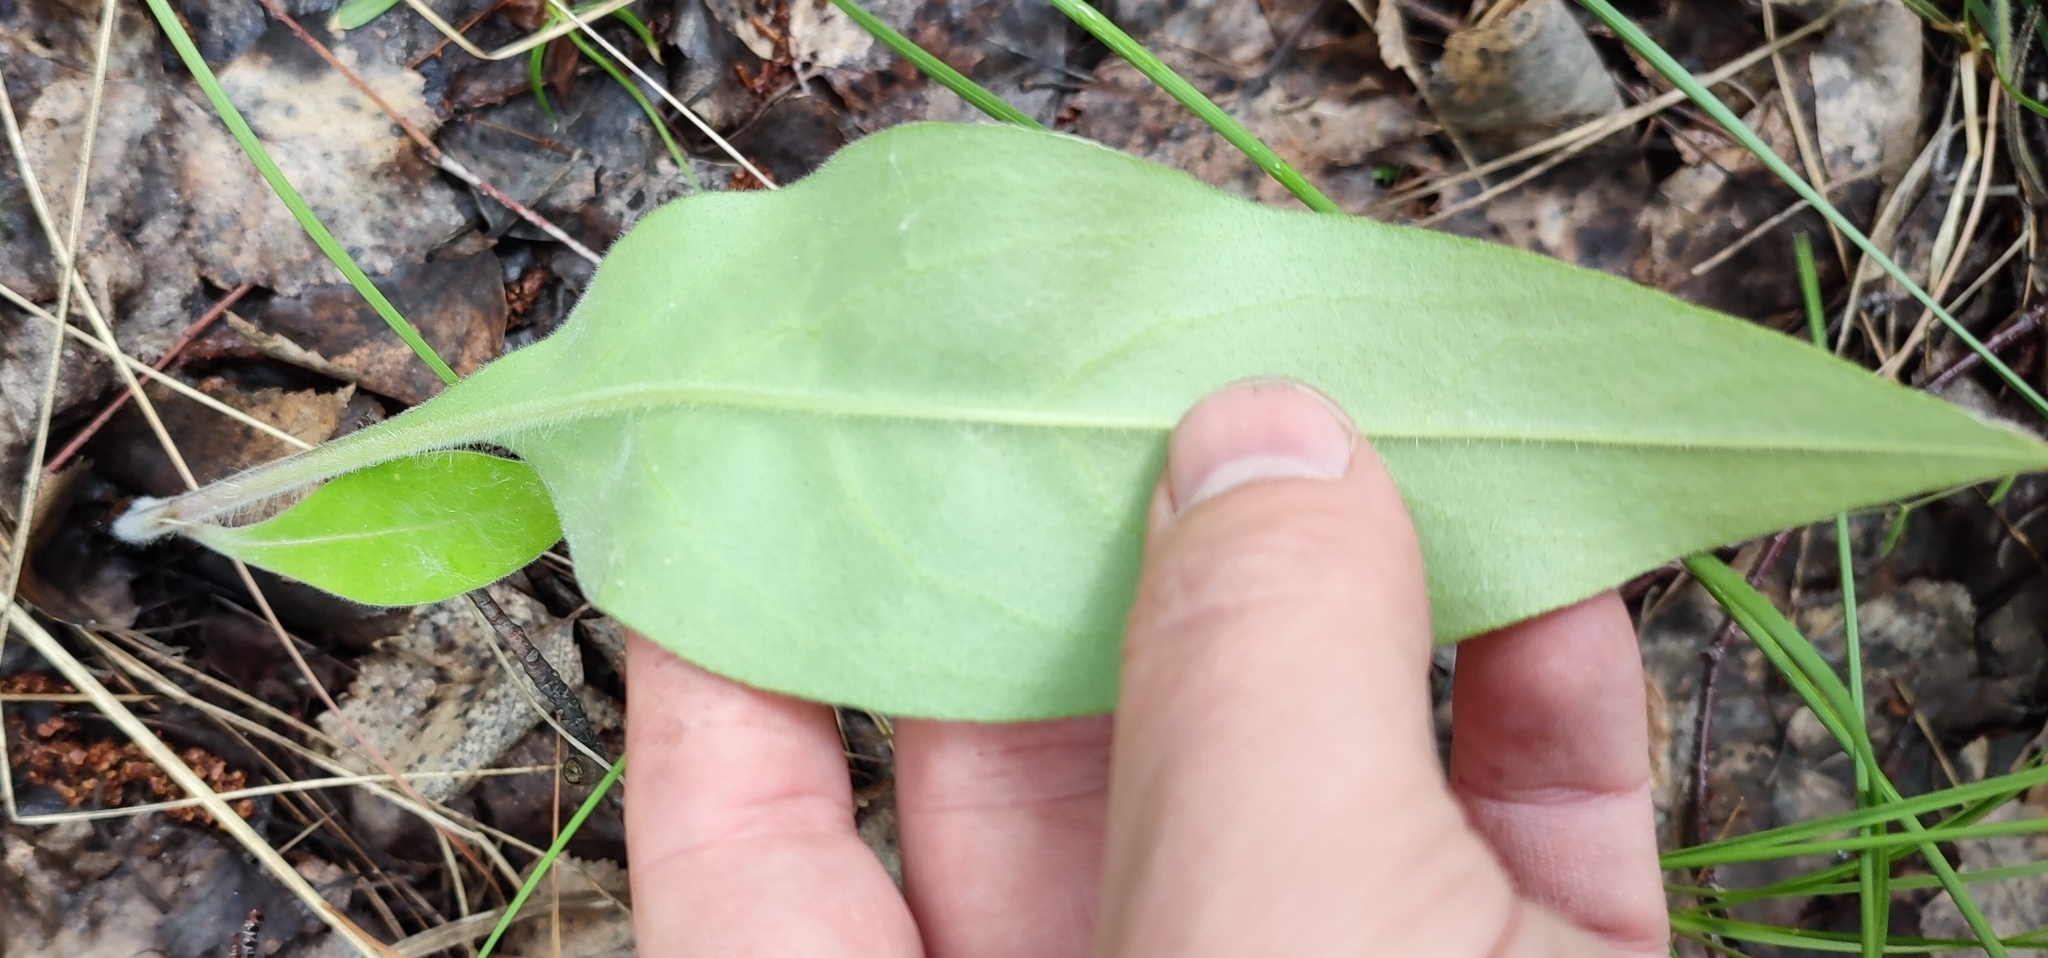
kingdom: Plantae
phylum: Tracheophyta
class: Magnoliopsida
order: Boraginales
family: Boraginaceae
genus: Pulmonaria
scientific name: Pulmonaria mollis
